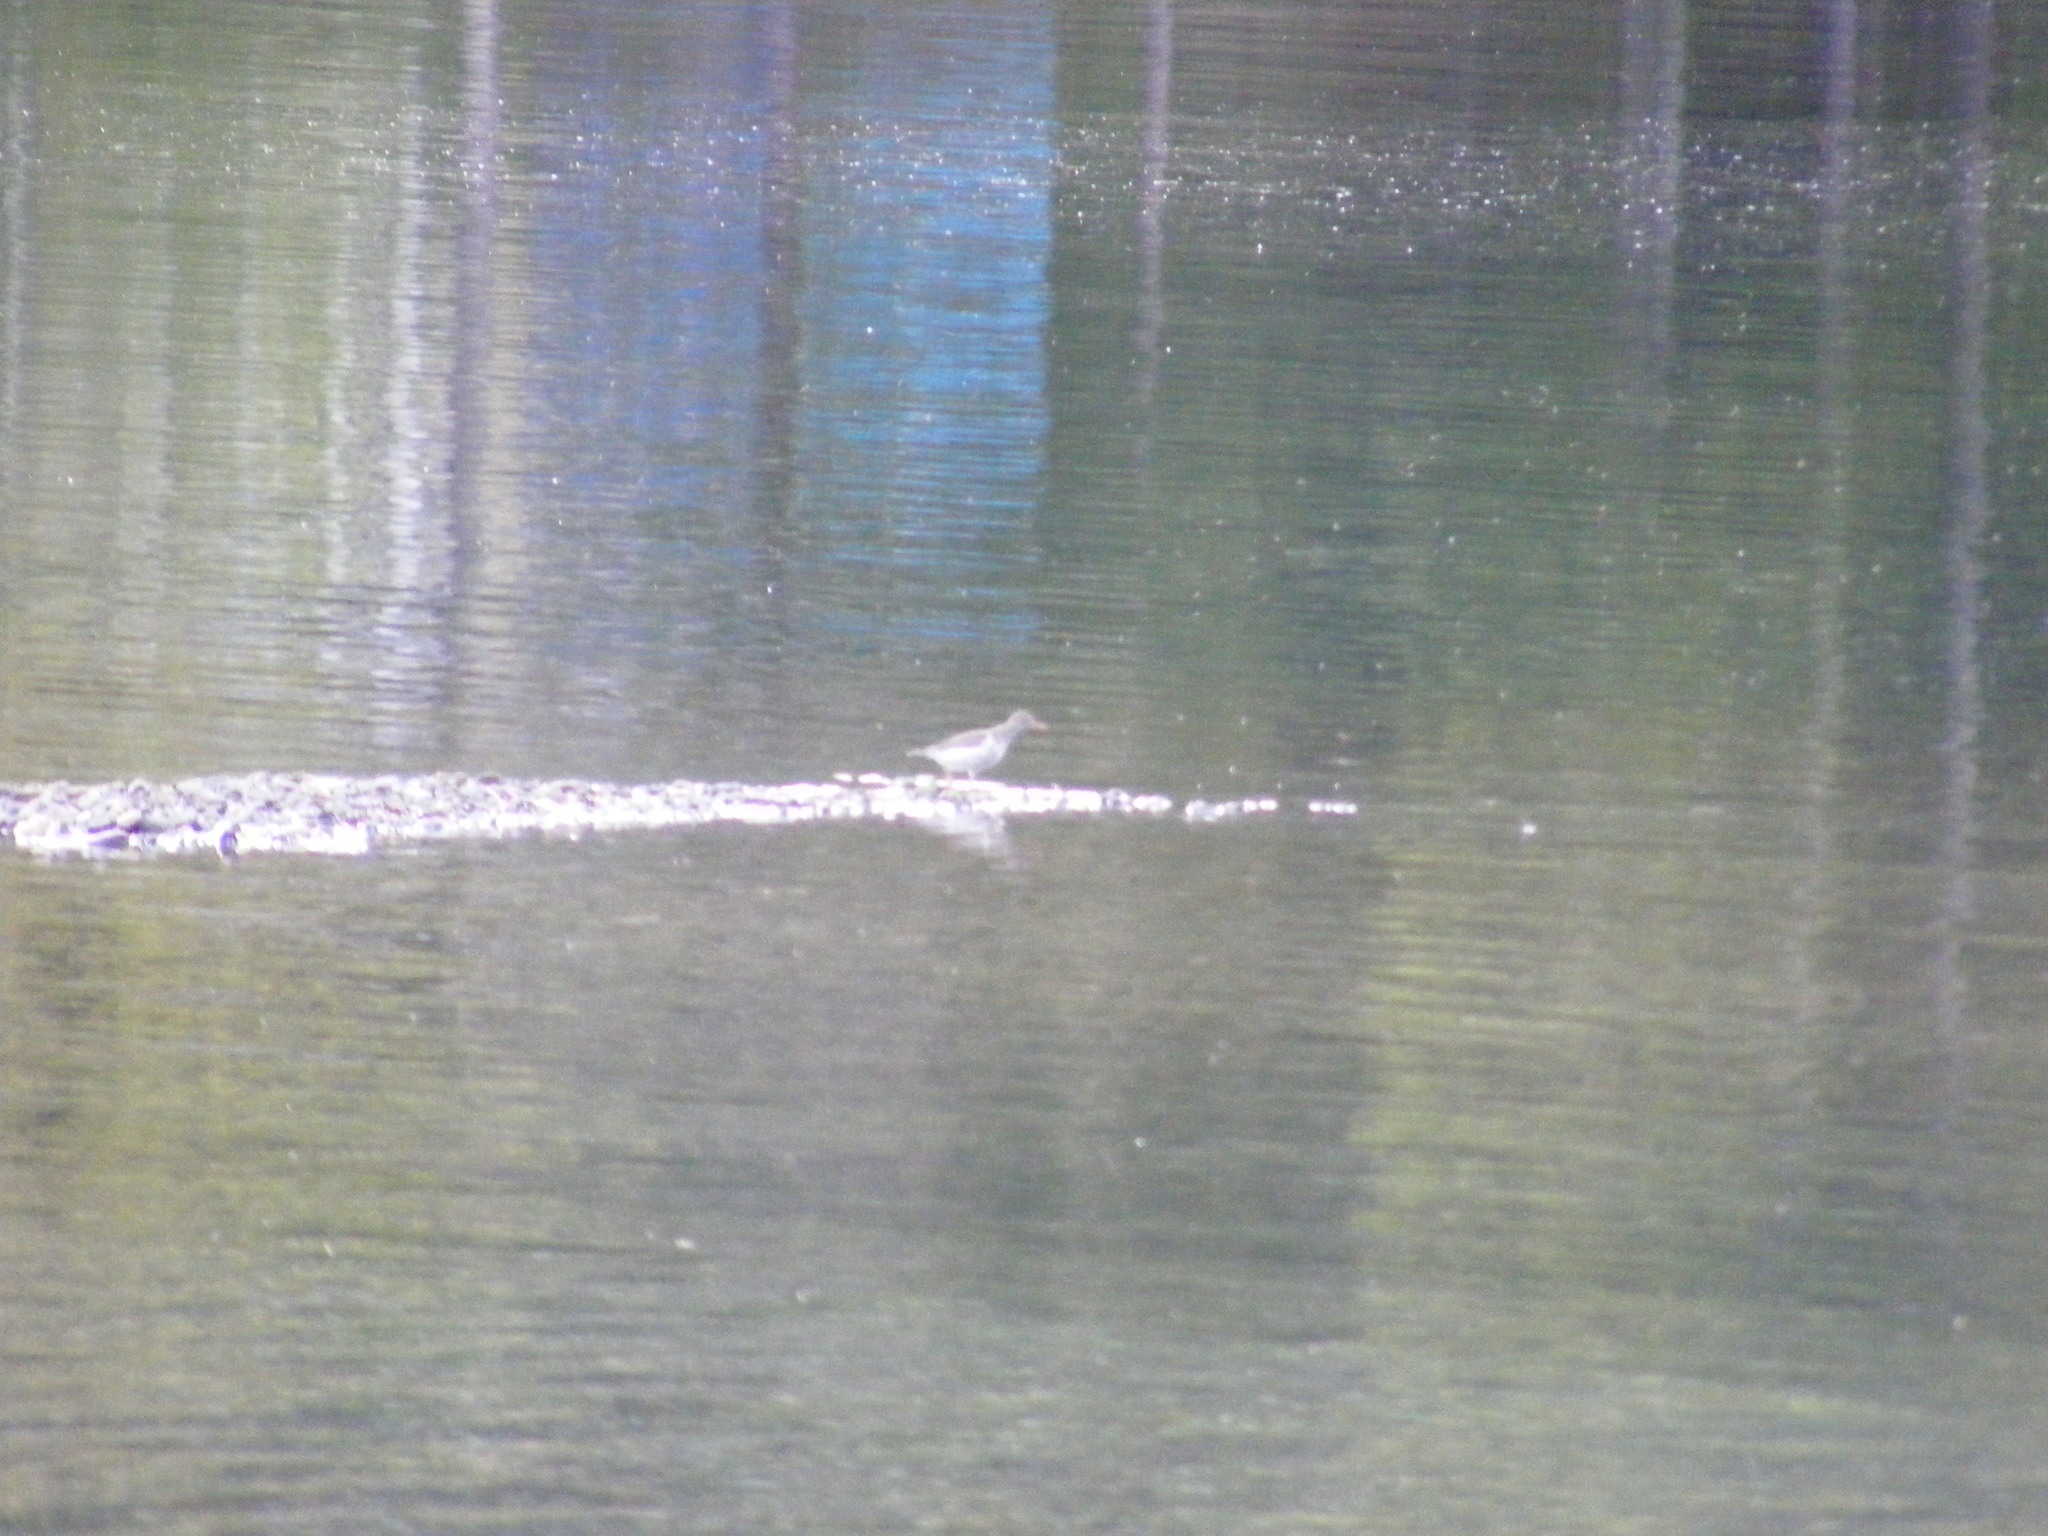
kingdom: Animalia
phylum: Chordata
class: Aves
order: Charadriiformes
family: Scolopacidae
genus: Actitis
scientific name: Actitis macularius
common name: Spotted sandpiper
